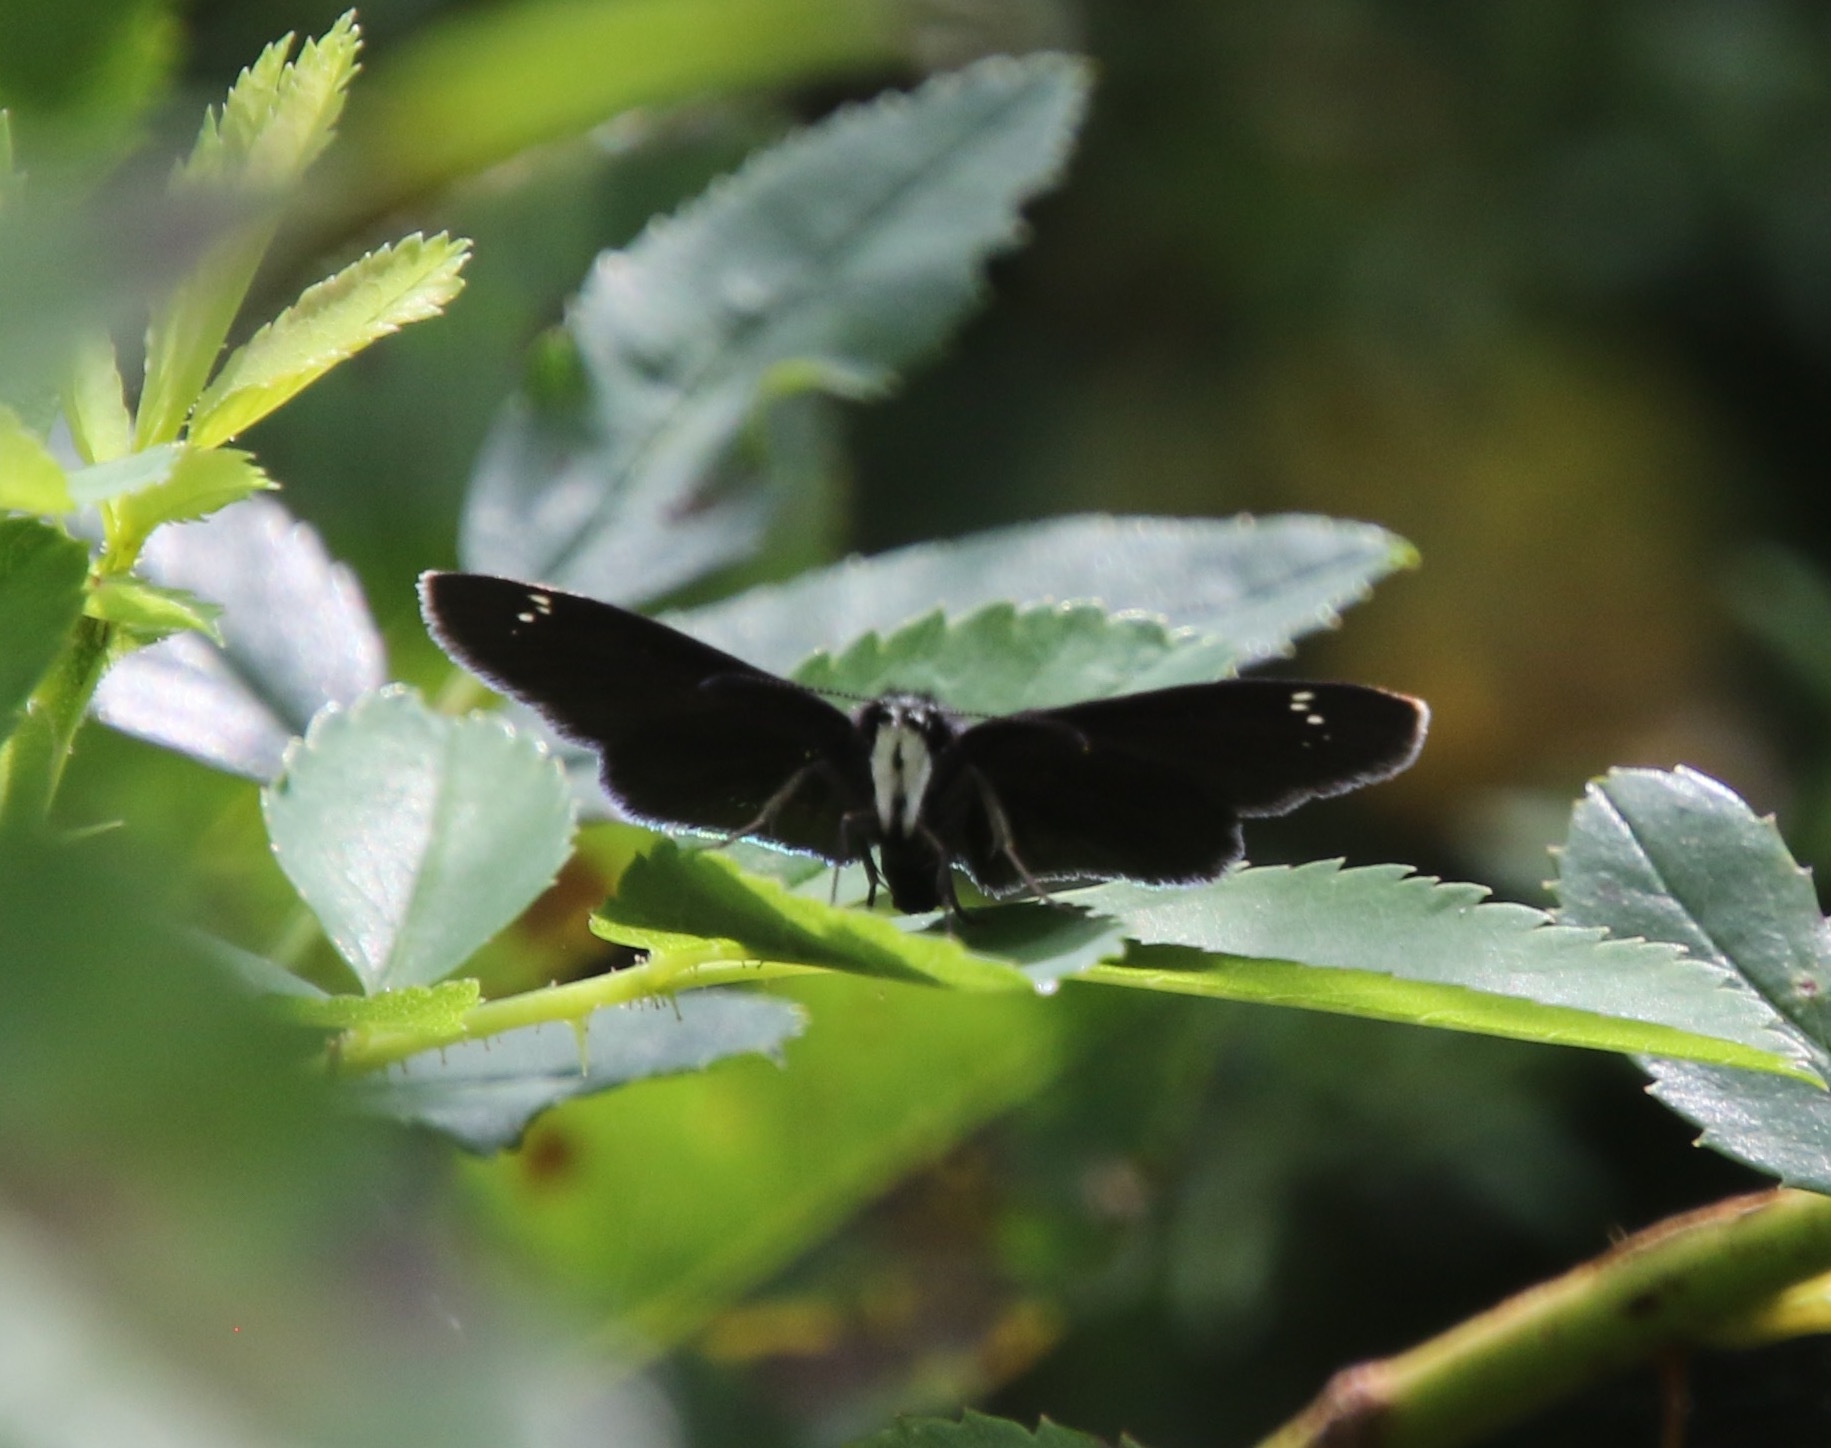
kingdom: Animalia
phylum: Arthropoda
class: Insecta
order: Lepidoptera
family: Hesperiidae
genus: Pholisora
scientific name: Pholisora catullus
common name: Common sootywing
